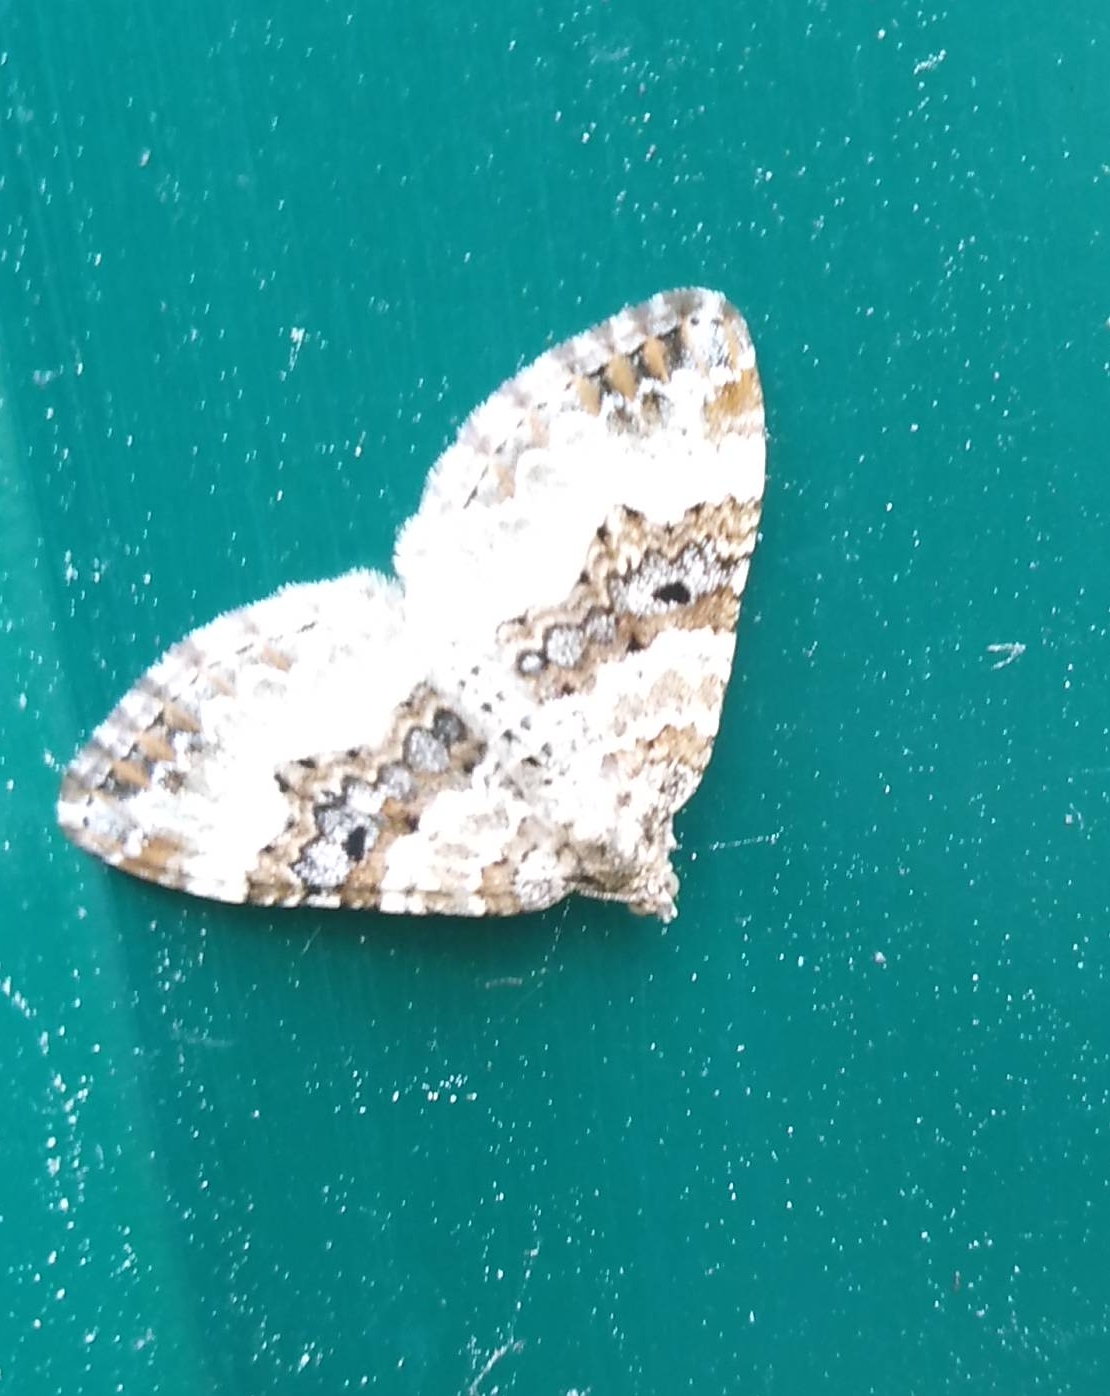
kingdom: Animalia
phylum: Arthropoda
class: Insecta
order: Lepidoptera
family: Geometridae
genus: Epirrhoe
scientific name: Epirrhoe rivata
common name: Wood carpet
